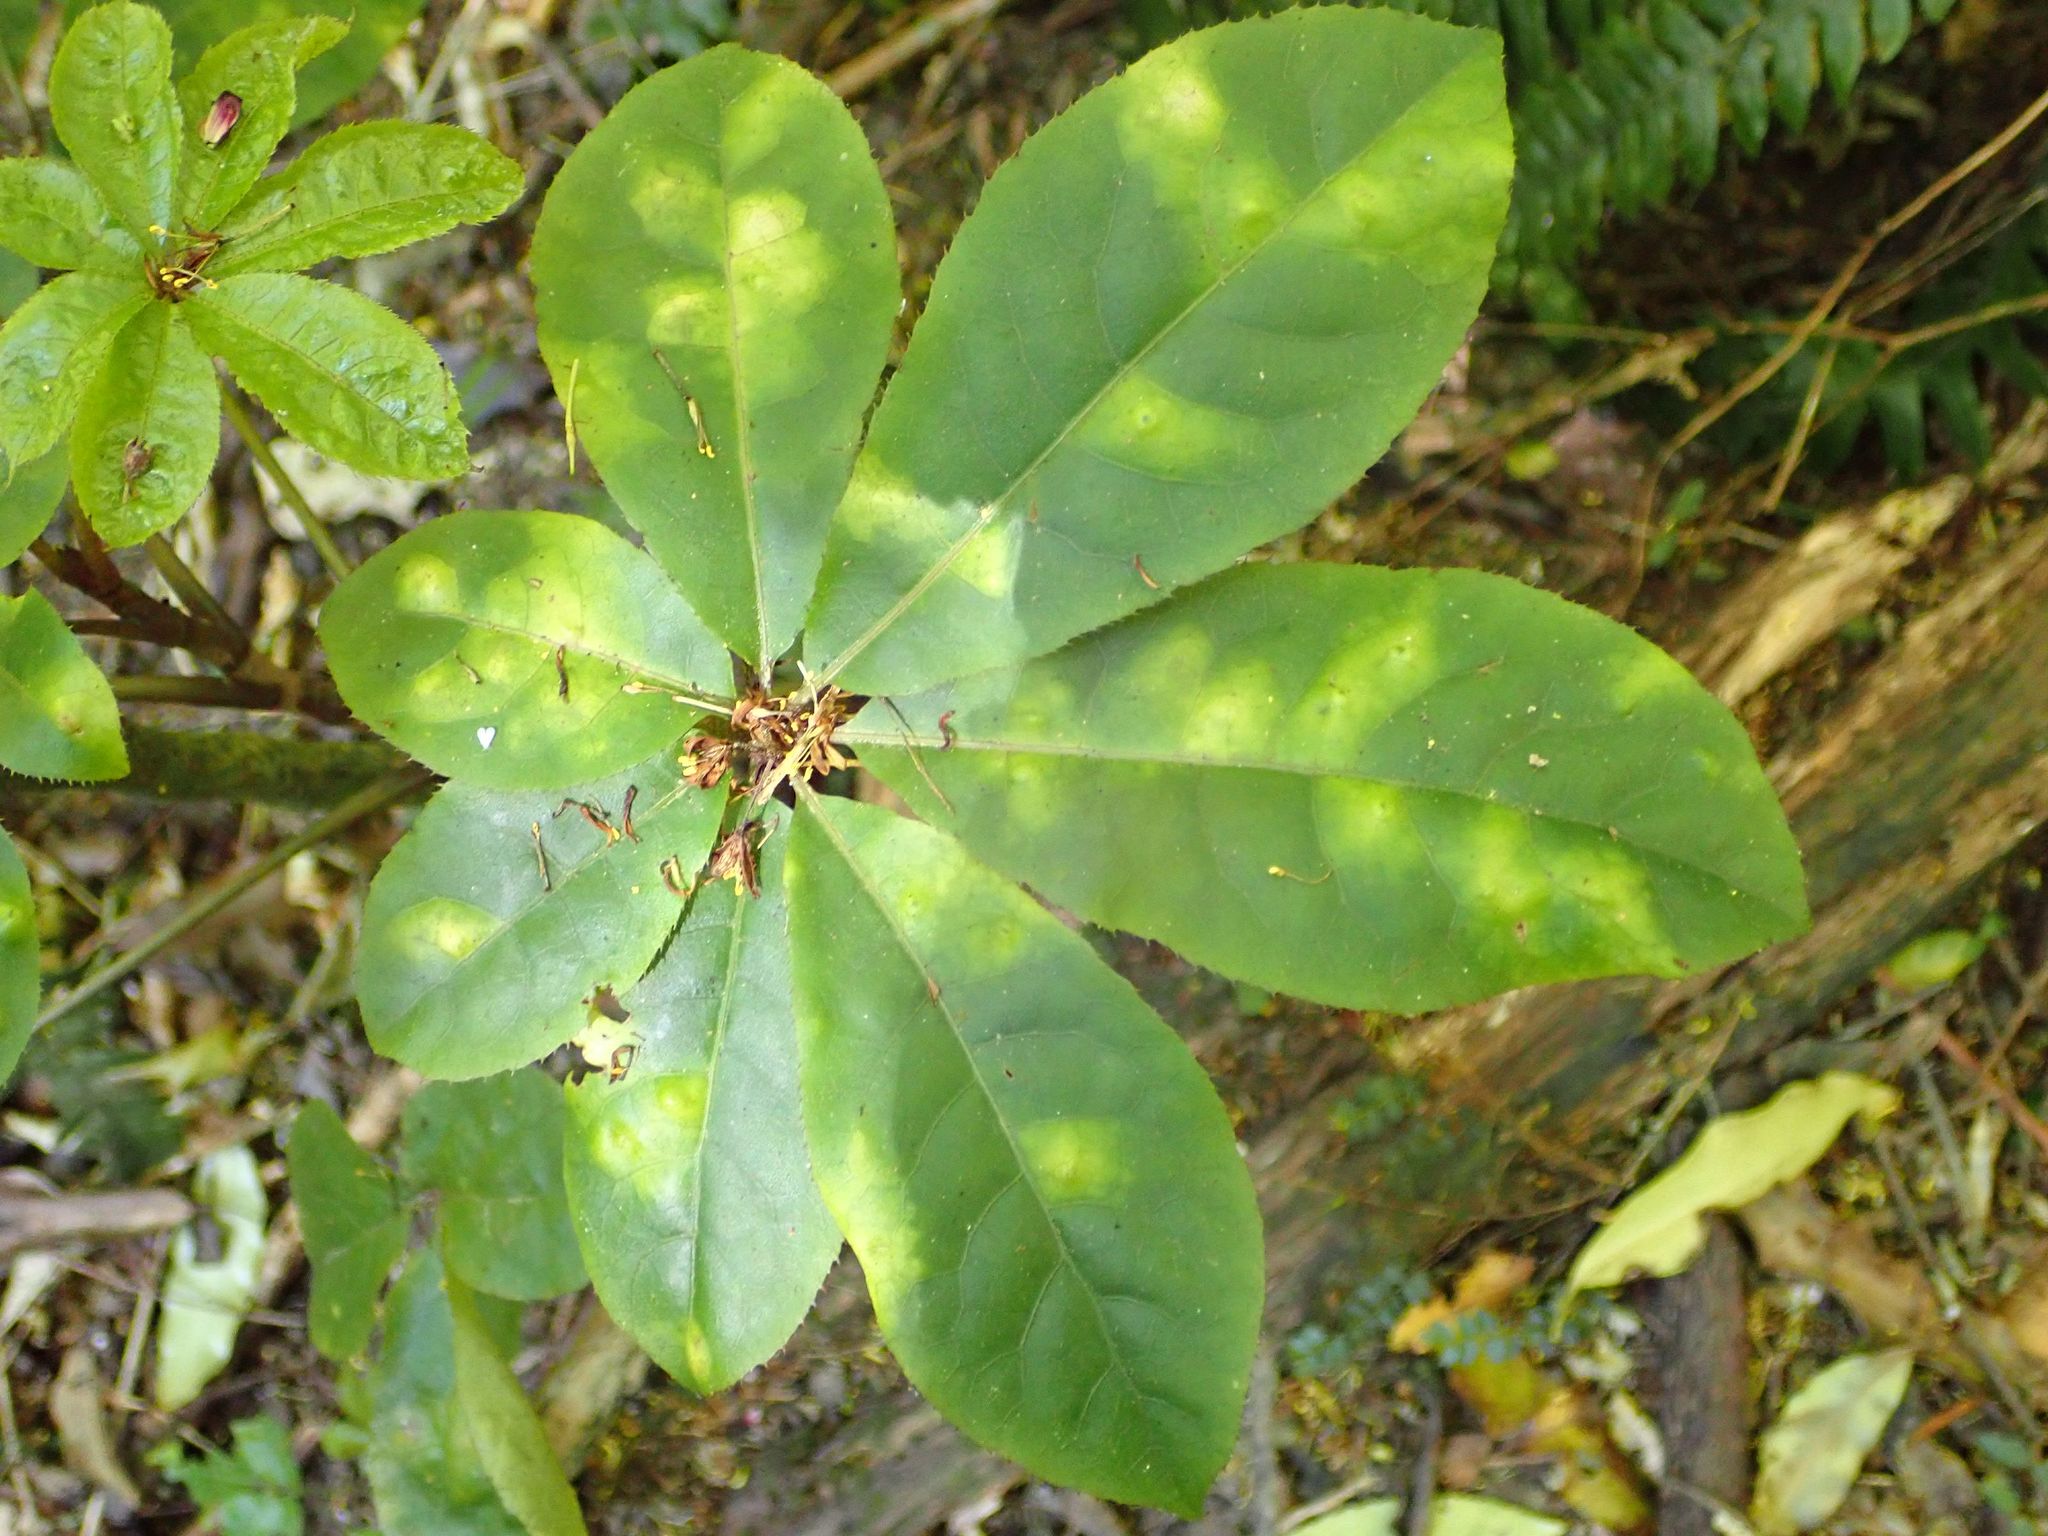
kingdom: Plantae
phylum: Tracheophyta
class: Magnoliopsida
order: Apiales
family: Araliaceae
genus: Schefflera
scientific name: Schefflera digitata
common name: Pate
